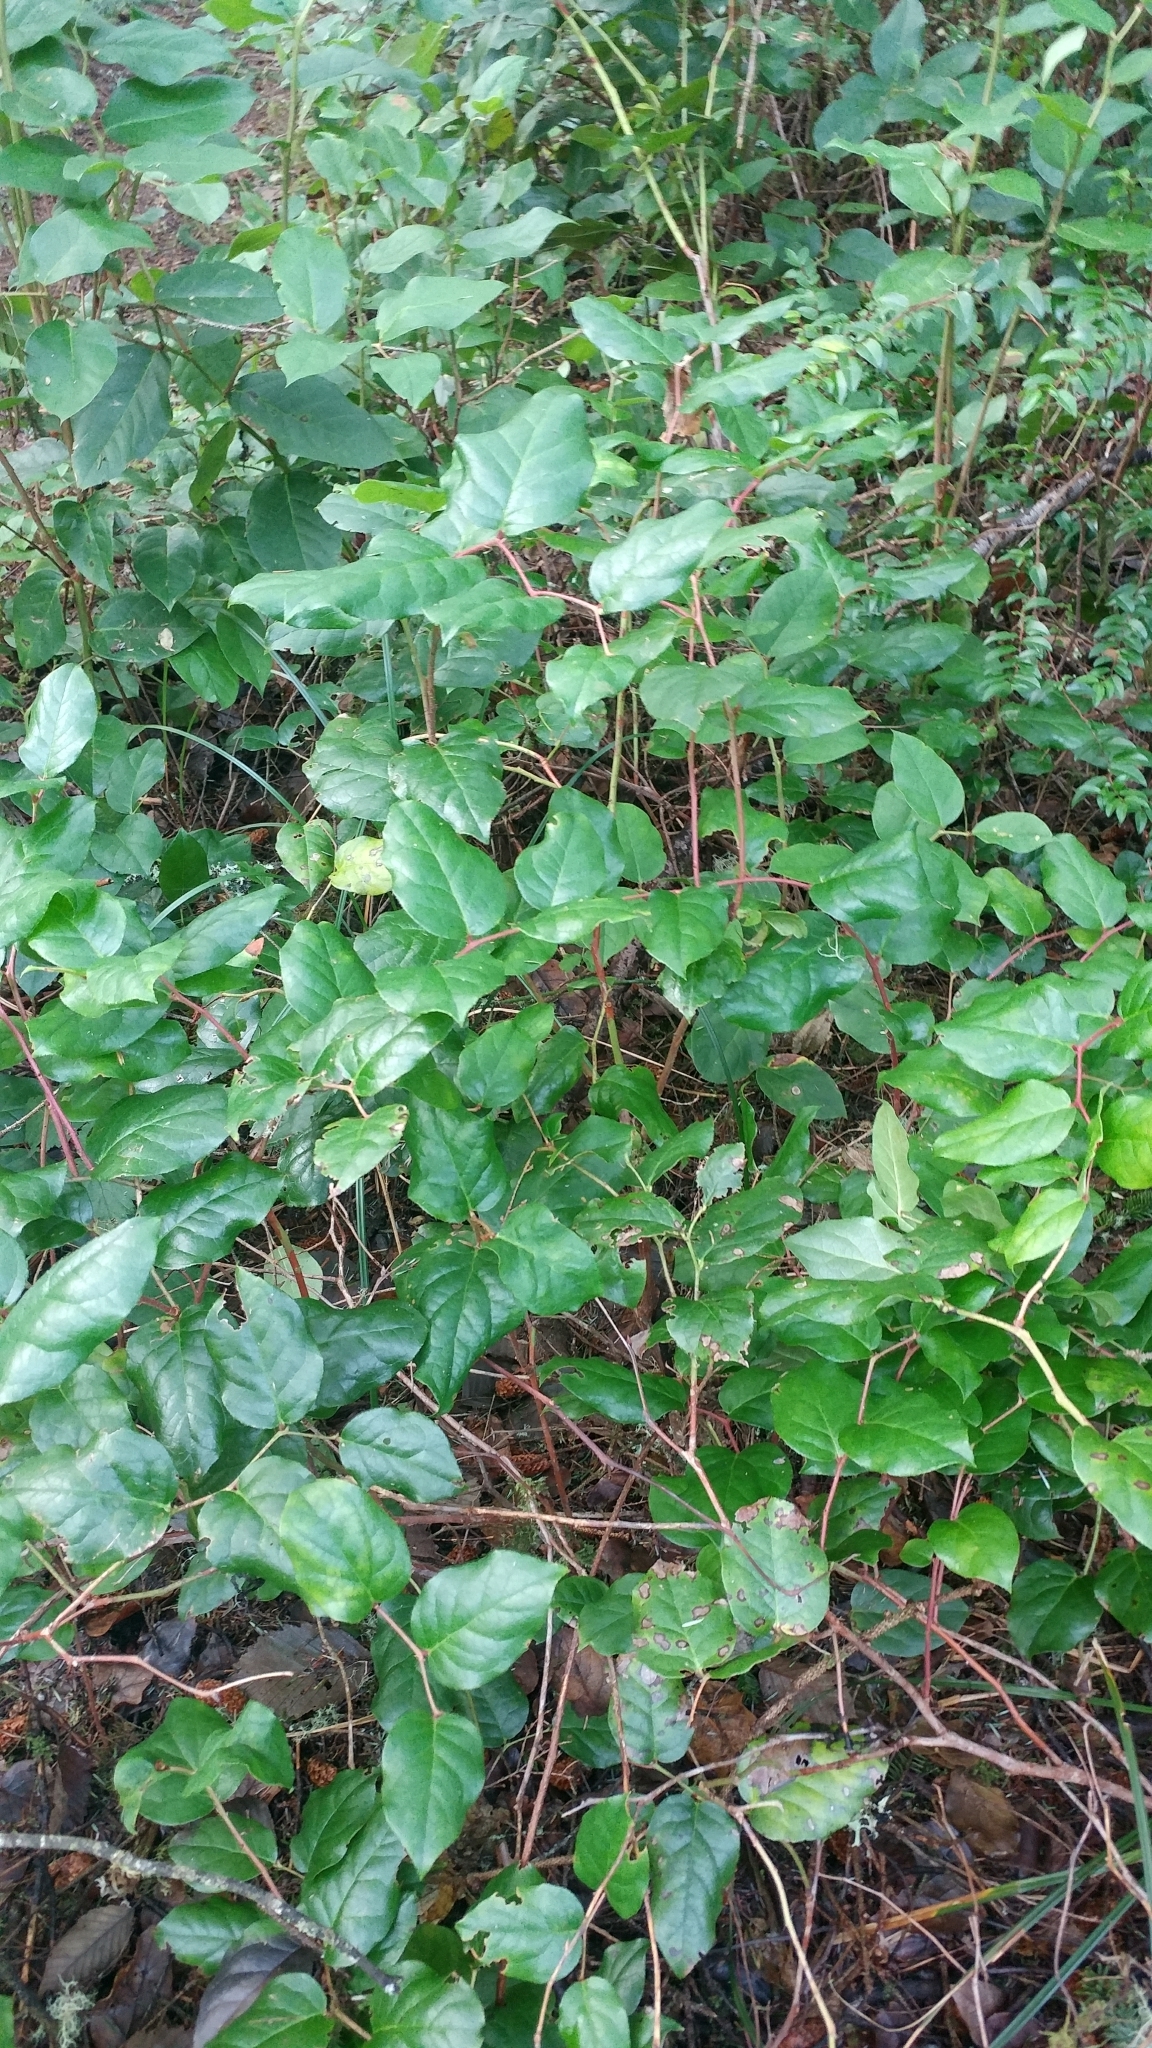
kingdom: Plantae
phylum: Tracheophyta
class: Magnoliopsida
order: Ericales
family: Ericaceae
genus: Gaultheria
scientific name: Gaultheria shallon
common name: Shallon
